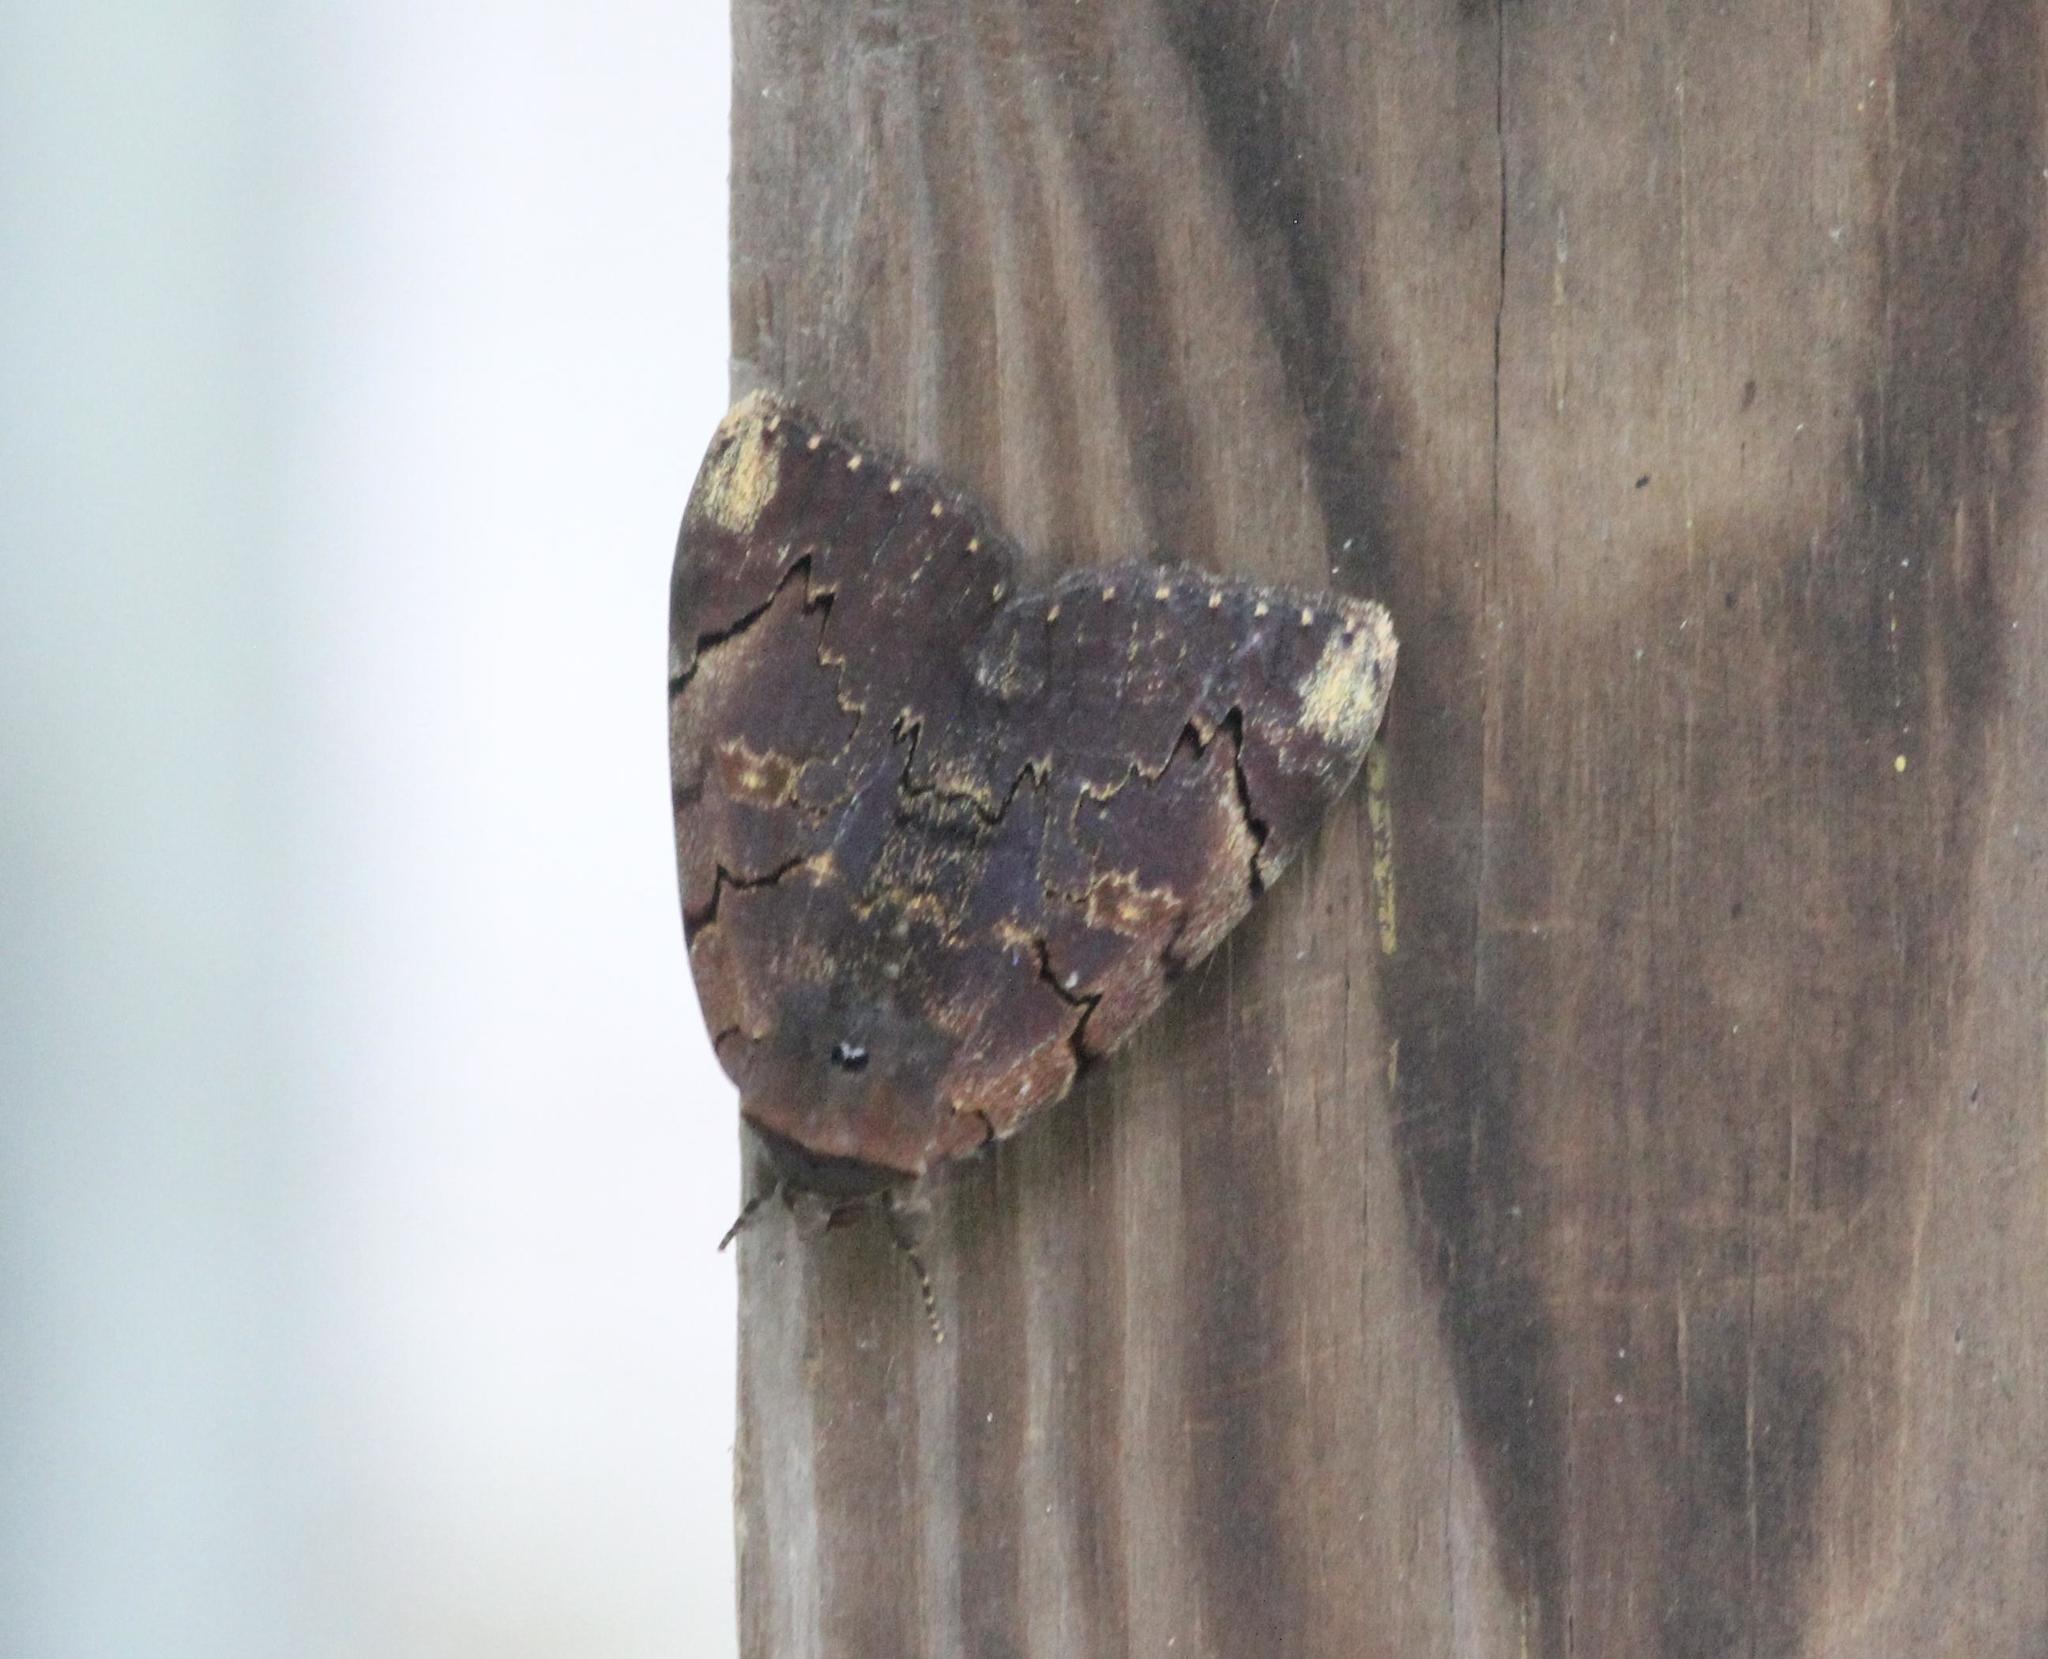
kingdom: Animalia
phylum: Arthropoda
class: Insecta
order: Lepidoptera
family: Erebidae
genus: Catocala
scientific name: Catocala carissima
